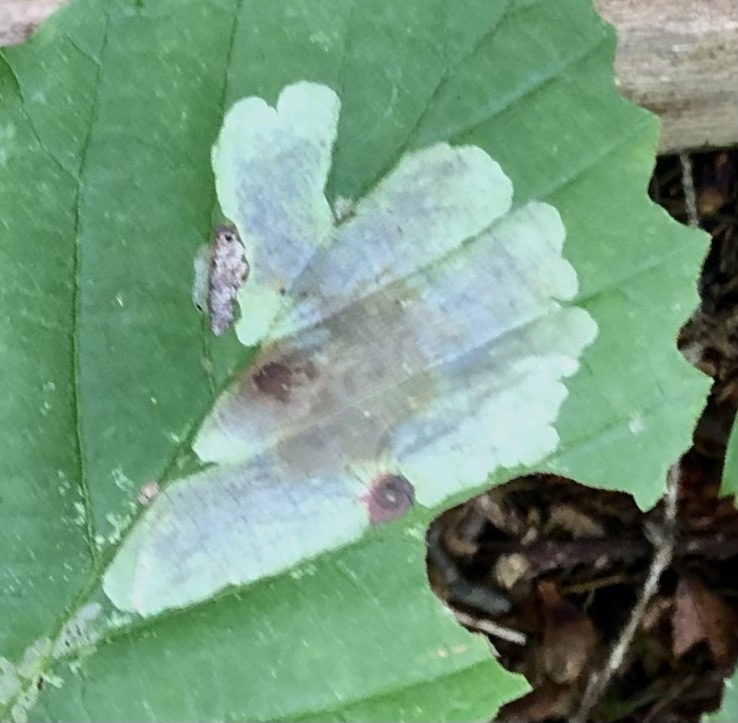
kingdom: Animalia
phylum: Arthropoda
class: Insecta
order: Lepidoptera
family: Gracillariidae
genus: Cameraria
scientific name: Cameraria hamameliella
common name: Witchhazel leafminer
